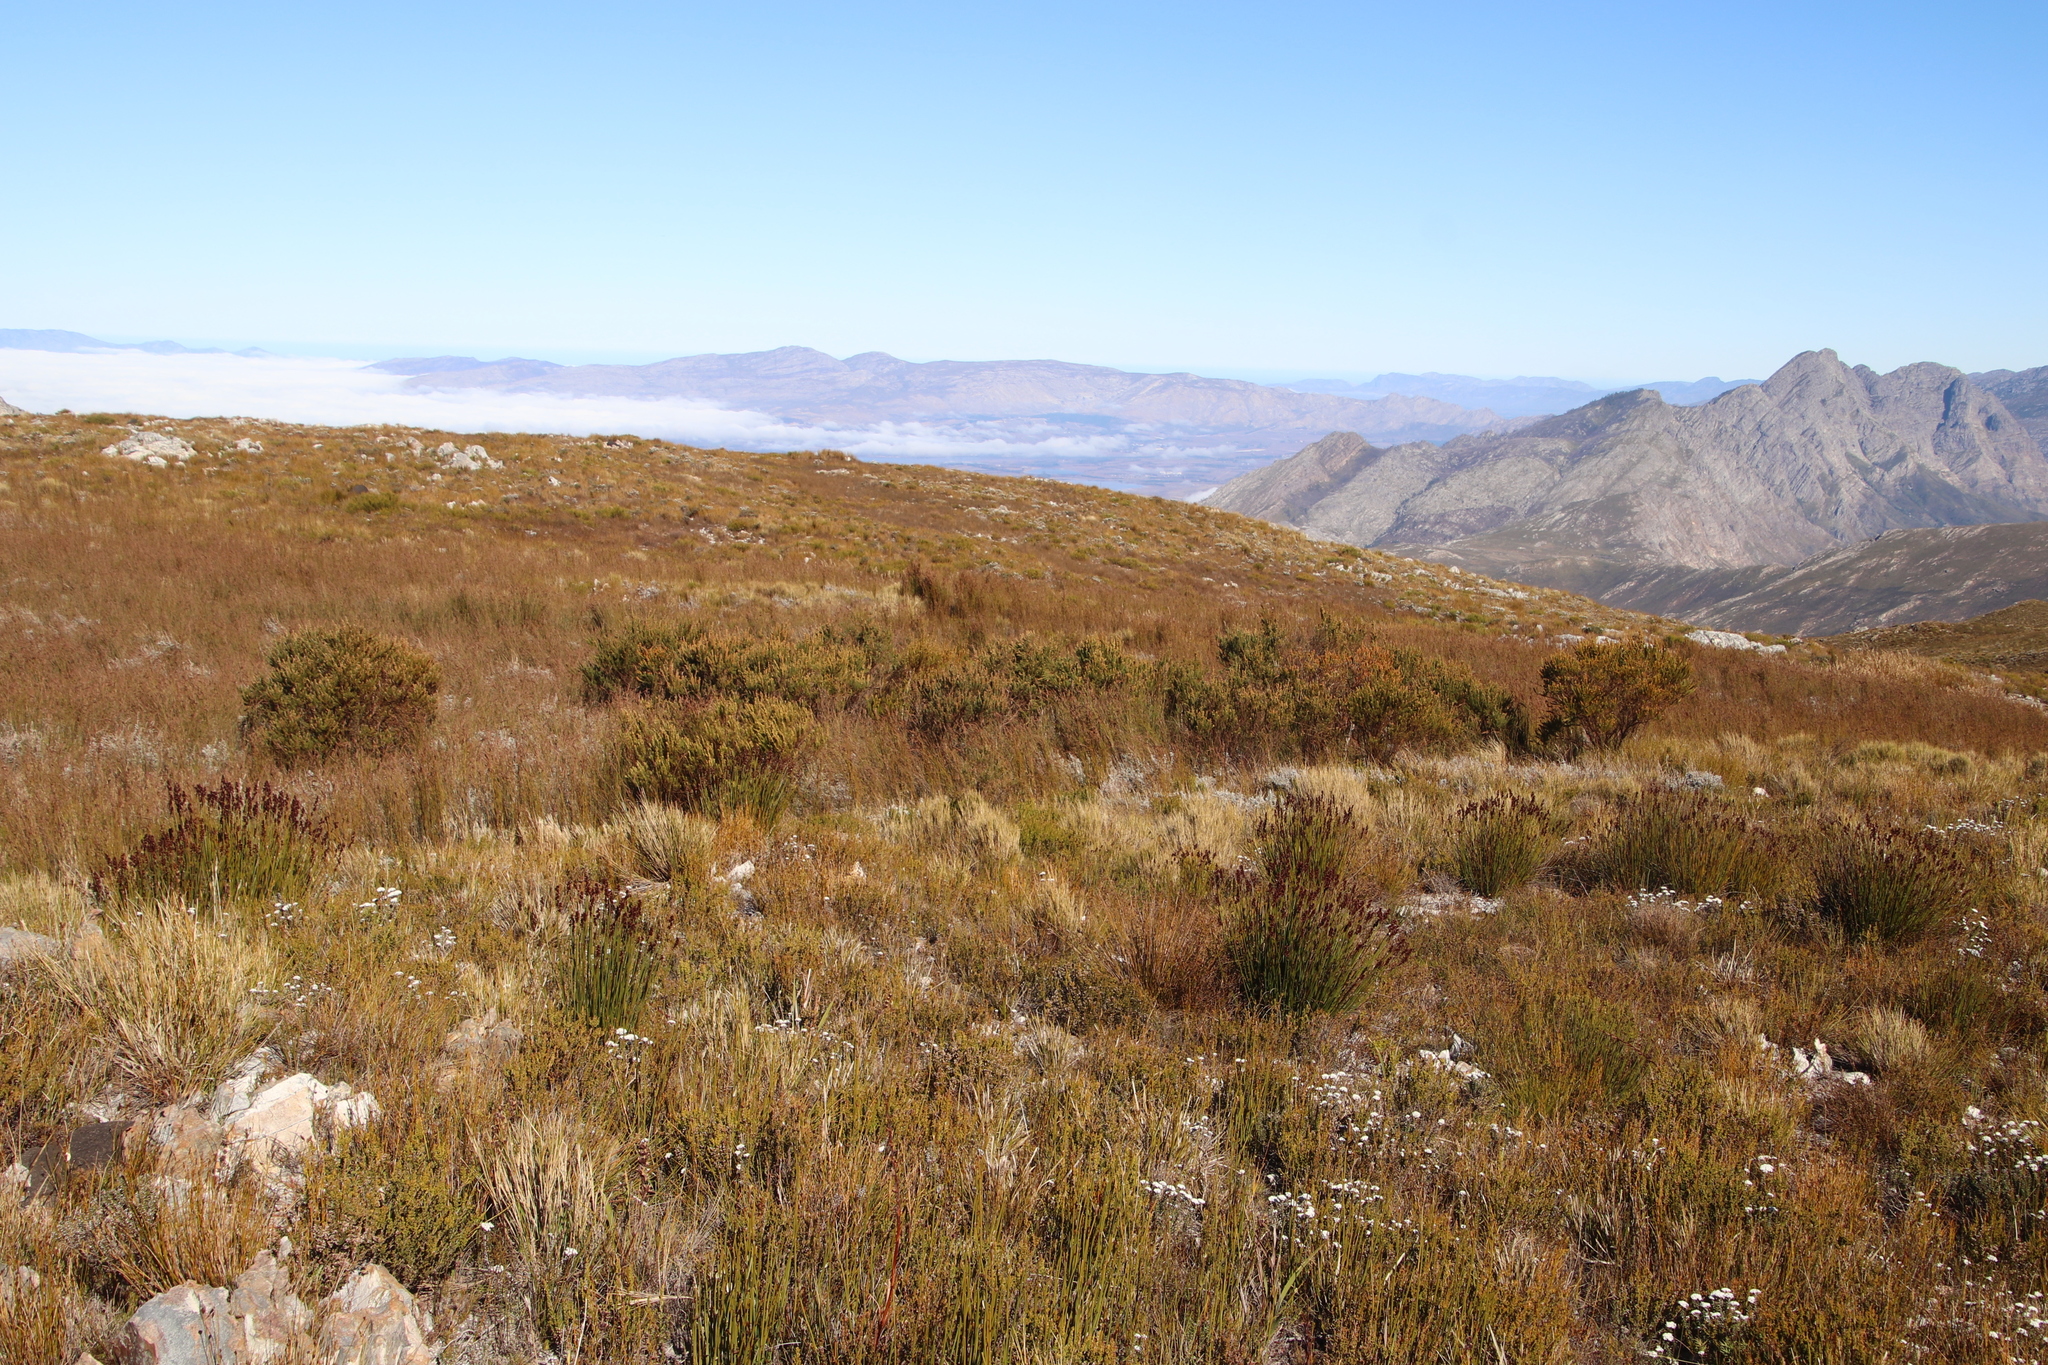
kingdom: Plantae
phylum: Tracheophyta
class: Magnoliopsida
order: Fabales
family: Fabaceae
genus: Cyclopia
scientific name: Cyclopia meyeriana
